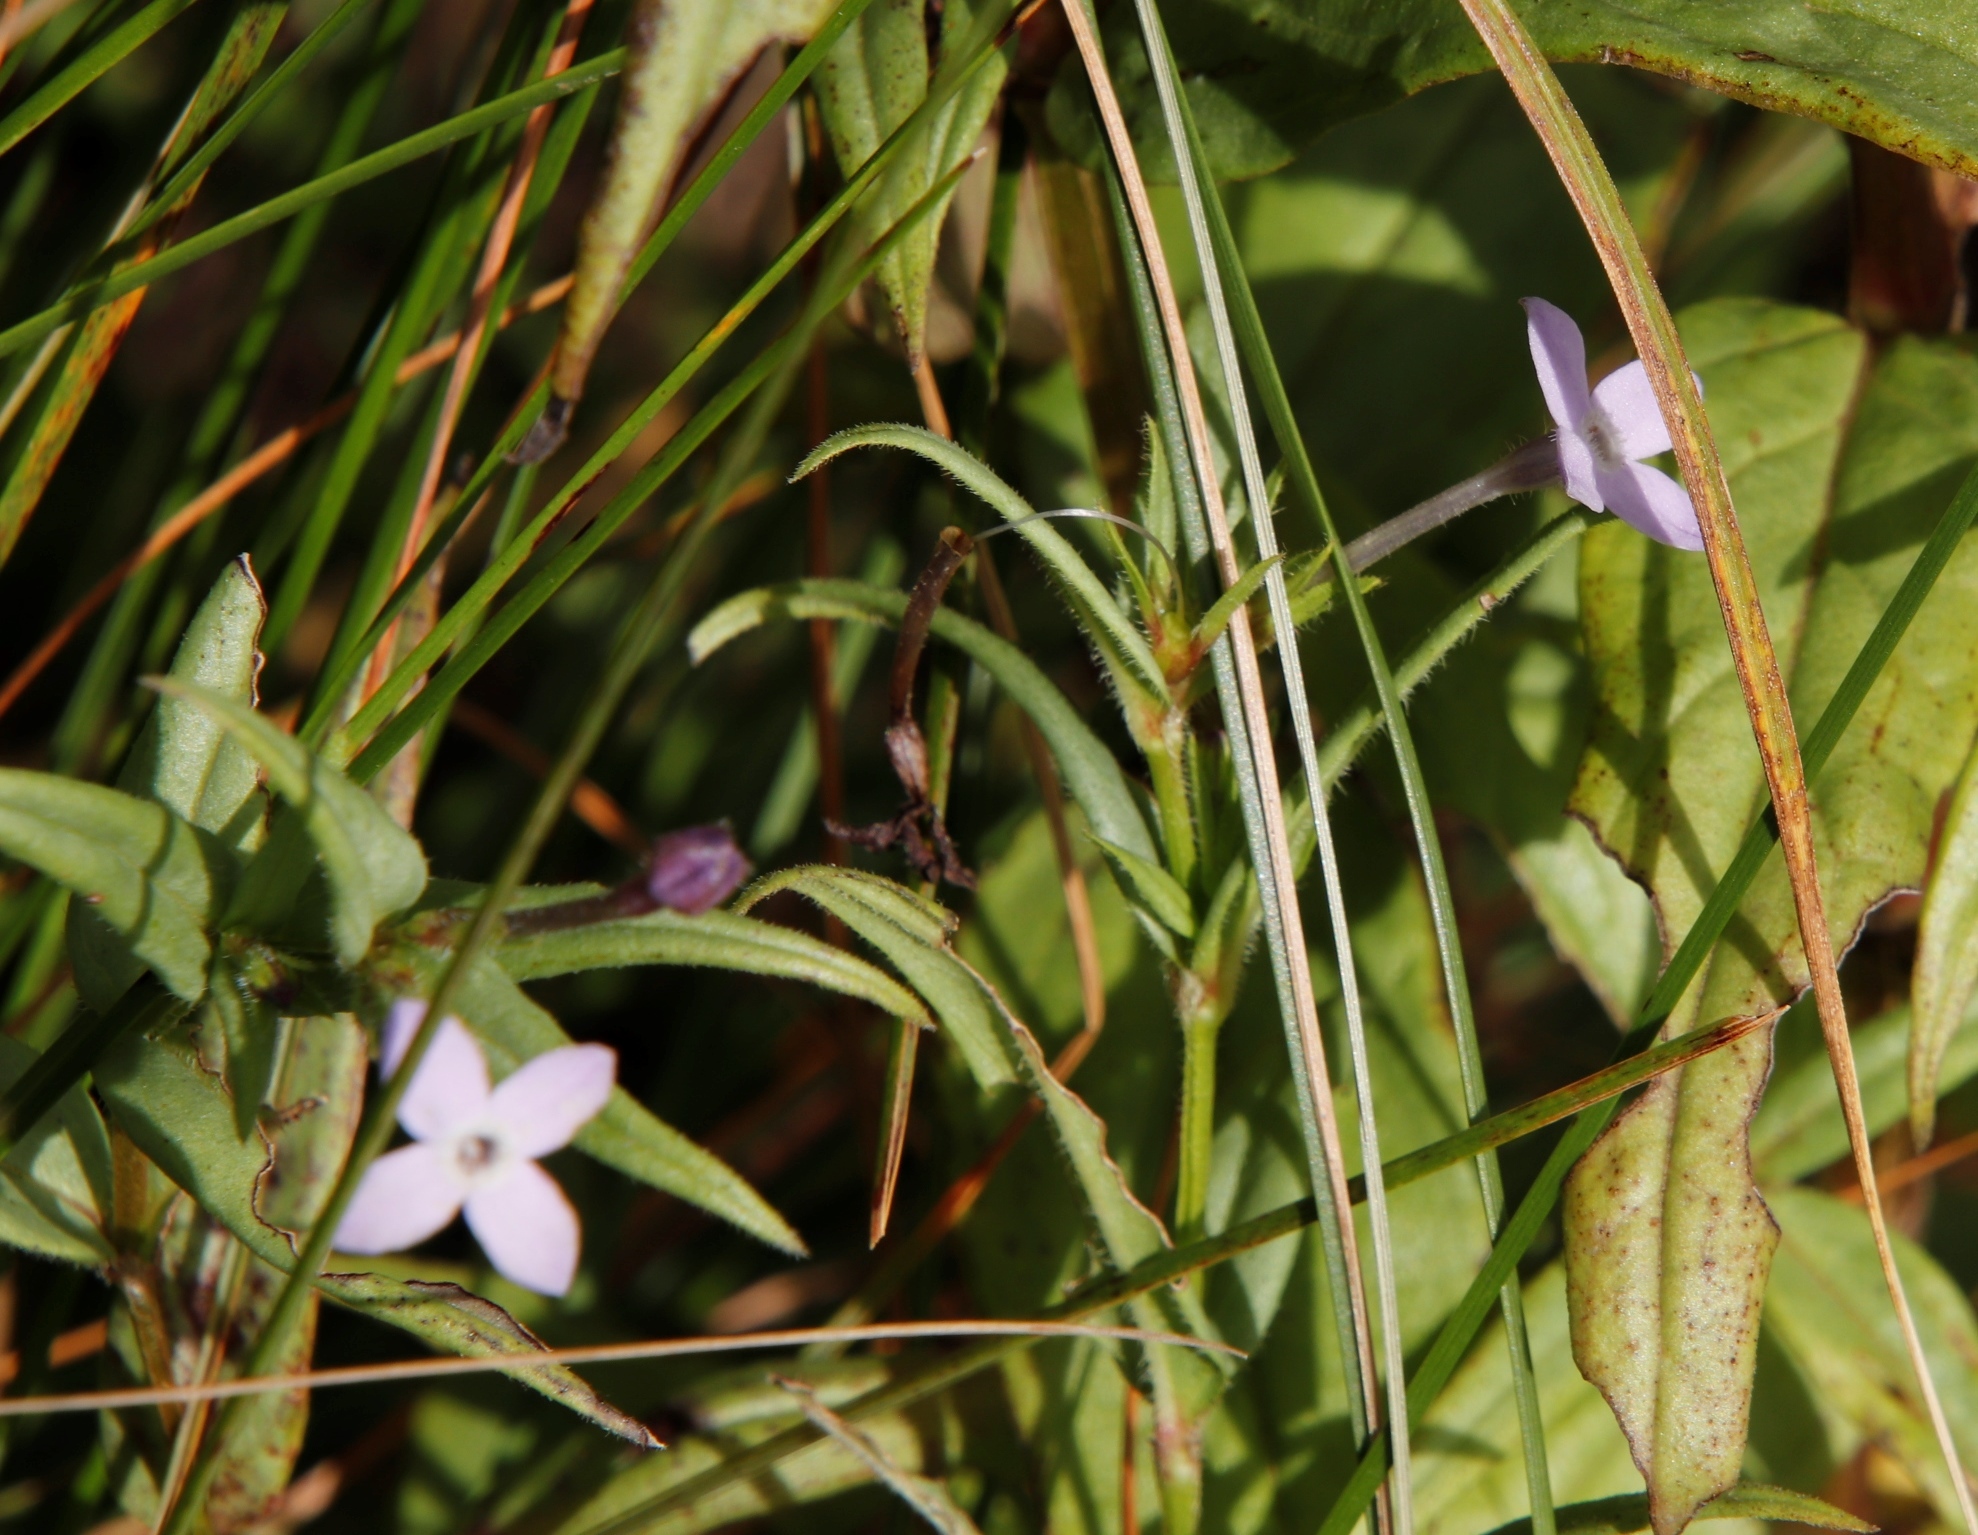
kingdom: Plantae
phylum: Tracheophyta
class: Magnoliopsida
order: Gentianales
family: Rubiaceae
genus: Conostomium
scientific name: Conostomium natalense
